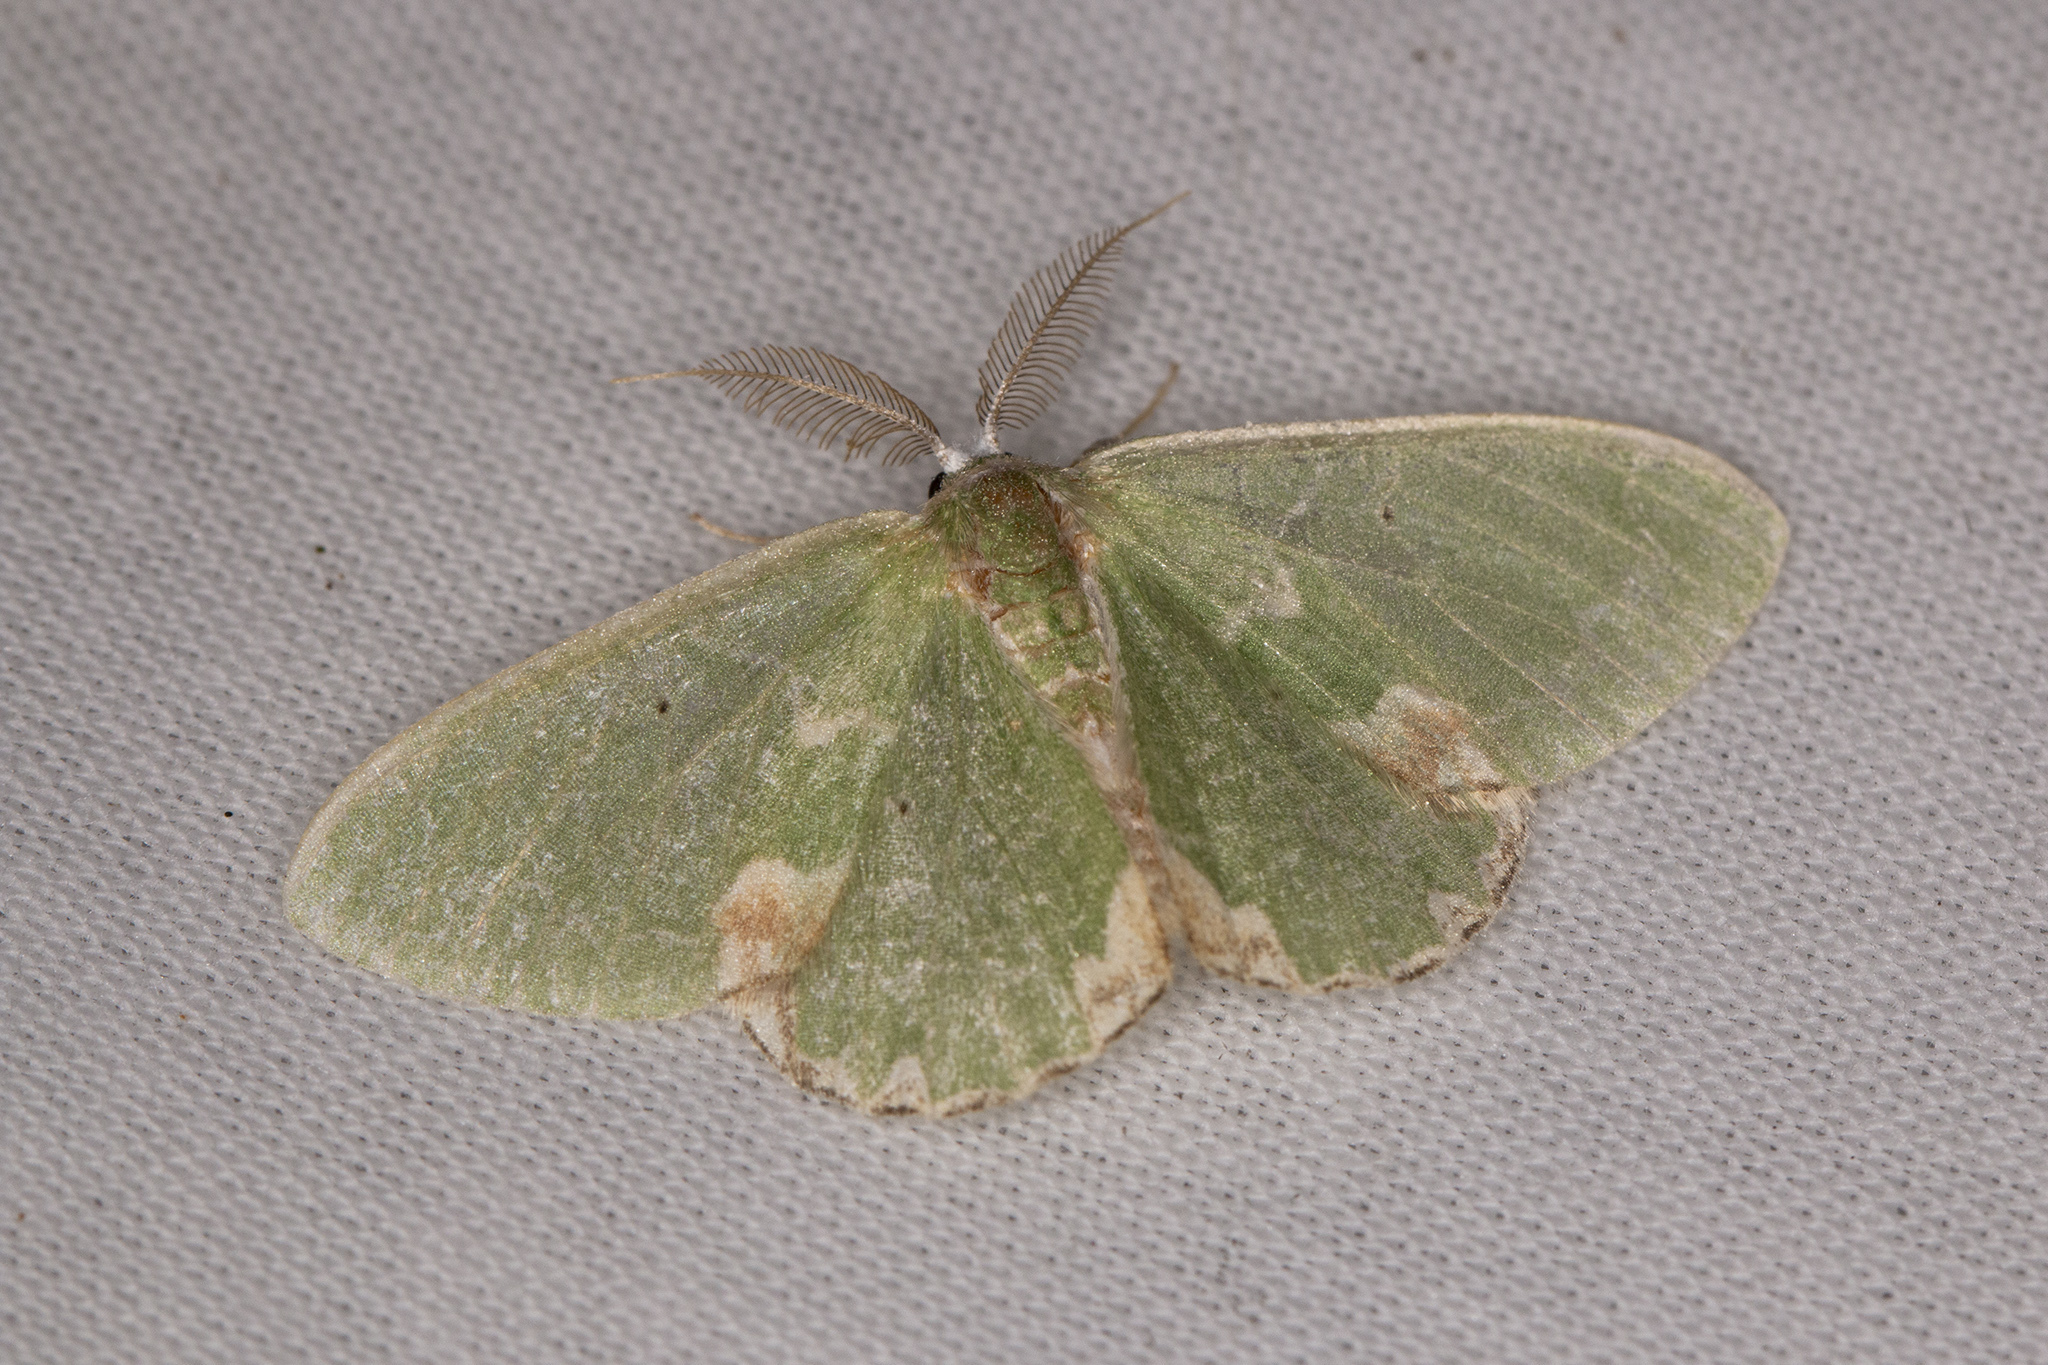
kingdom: Animalia
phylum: Arthropoda
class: Insecta
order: Lepidoptera
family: Geometridae
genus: Comibaena
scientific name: Comibaena bajularia
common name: Blotched emerald
